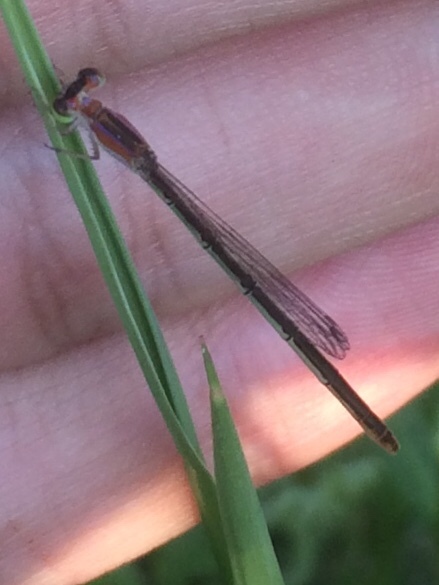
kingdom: Animalia
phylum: Arthropoda
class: Insecta
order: Odonata
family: Coenagrionidae
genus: Agriocnemis
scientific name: Agriocnemis pygmaea
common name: Pygmy wisp
